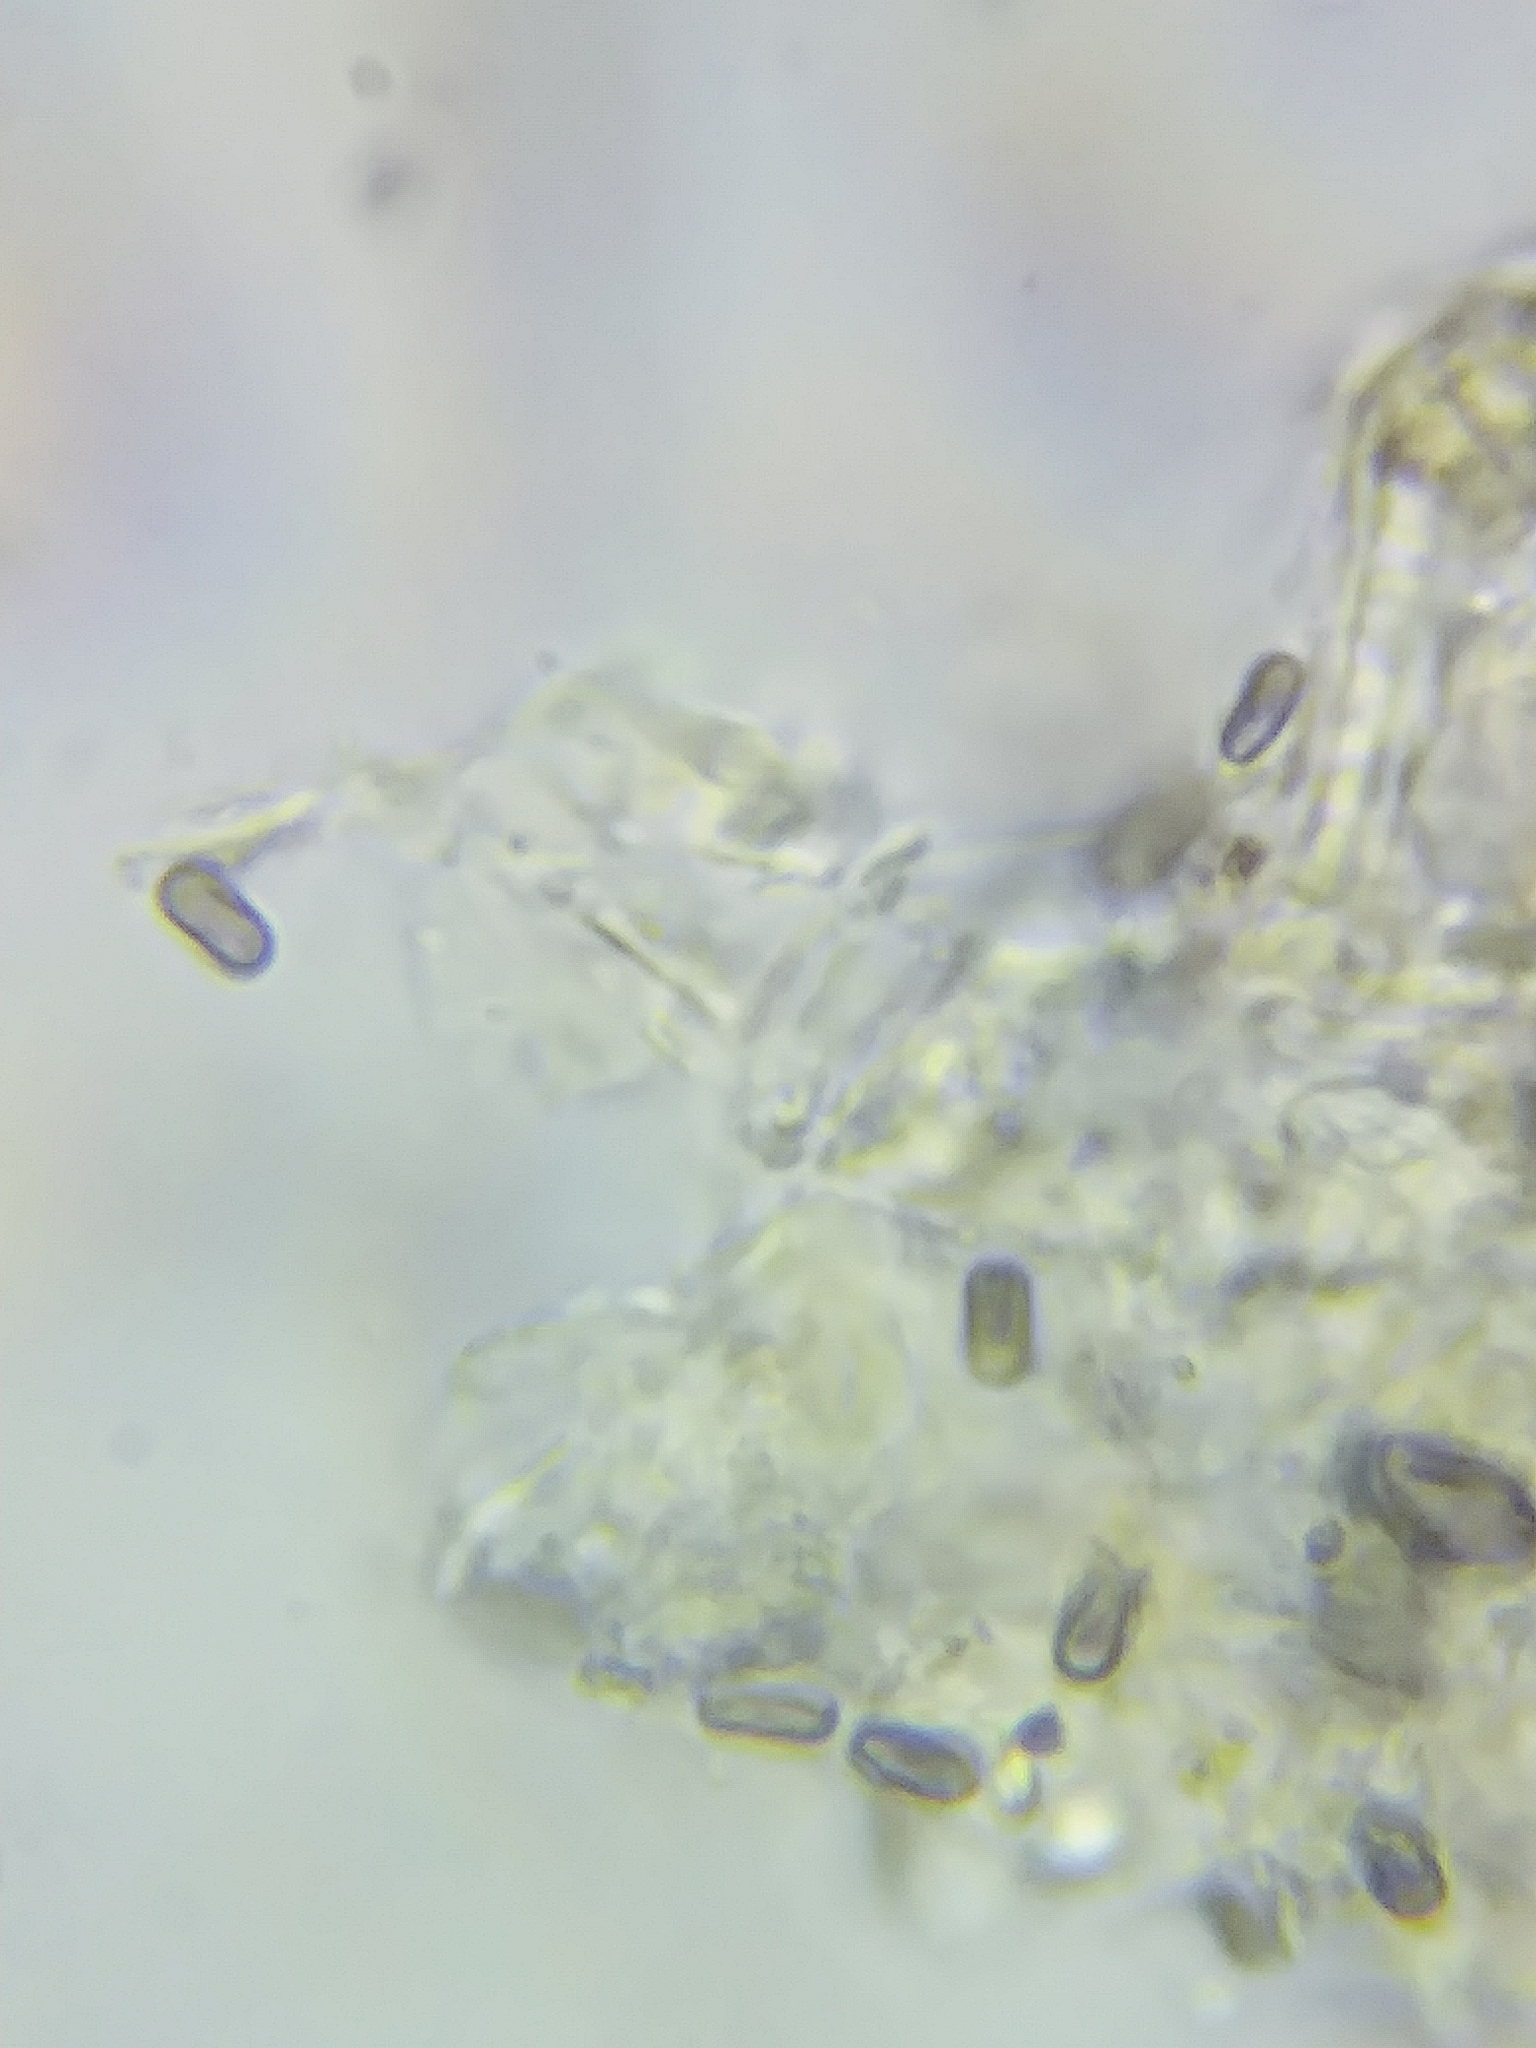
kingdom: Fungi
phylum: Basidiomycota
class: Agaricomycetes
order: Russulales
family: Peniophoraceae
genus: Vararia
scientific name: Vararia investiens
